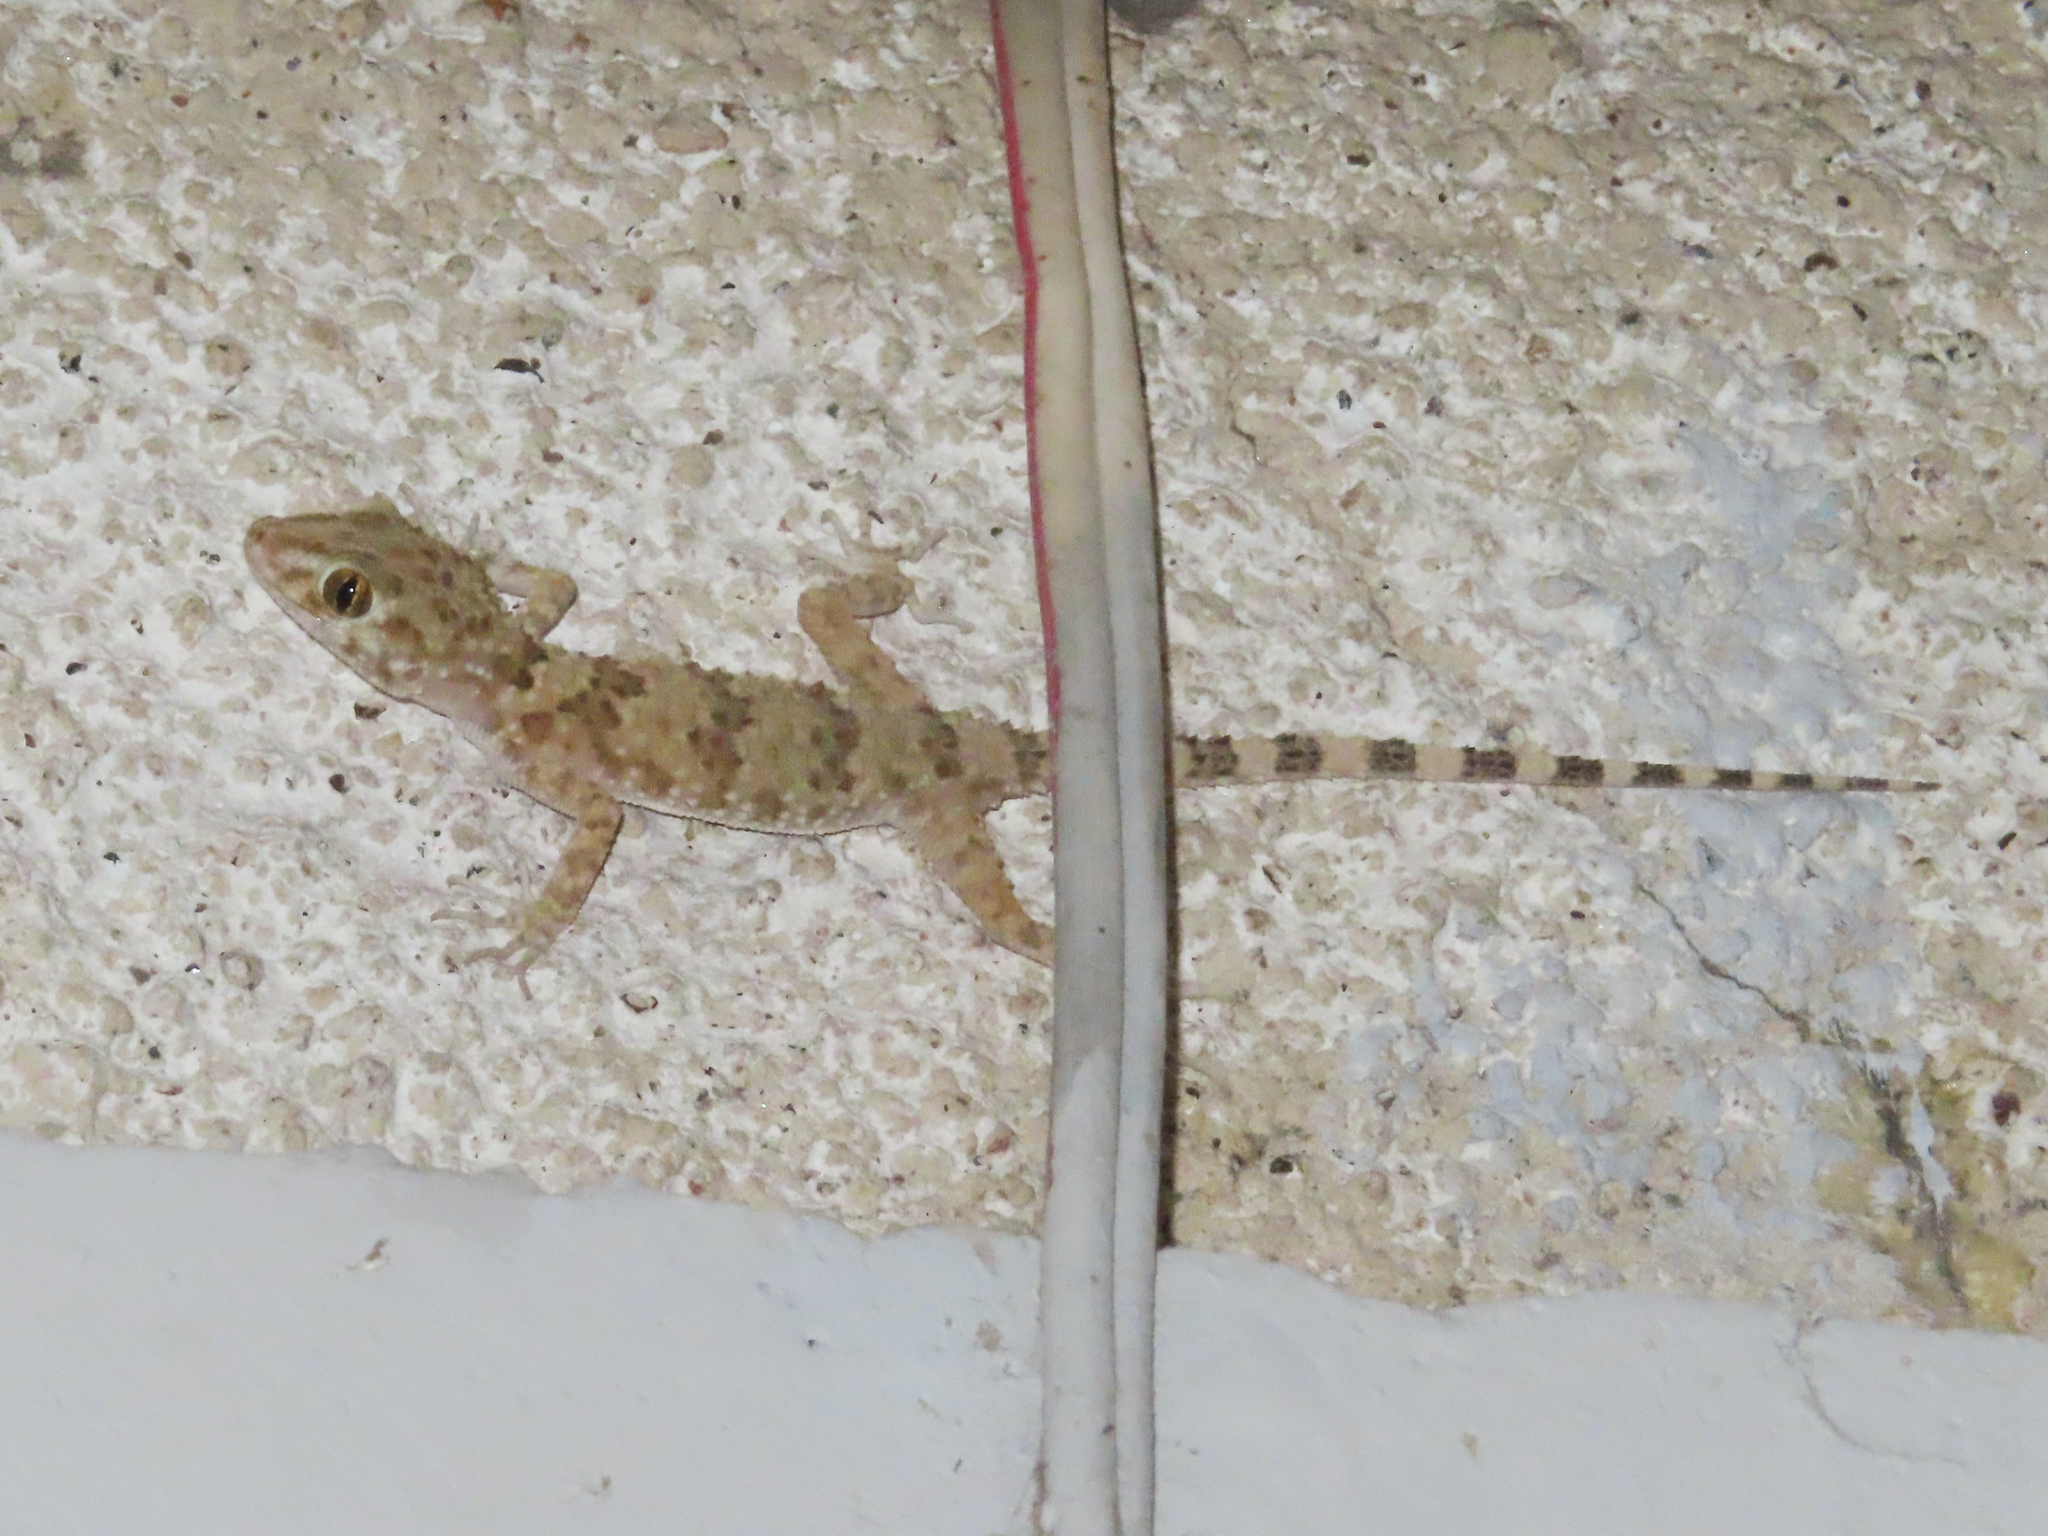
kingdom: Animalia
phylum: Chordata
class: Squamata
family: Gekkonidae
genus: Tenuidactylus
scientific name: Tenuidactylus caspius
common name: Caspian bent-toed gecko
